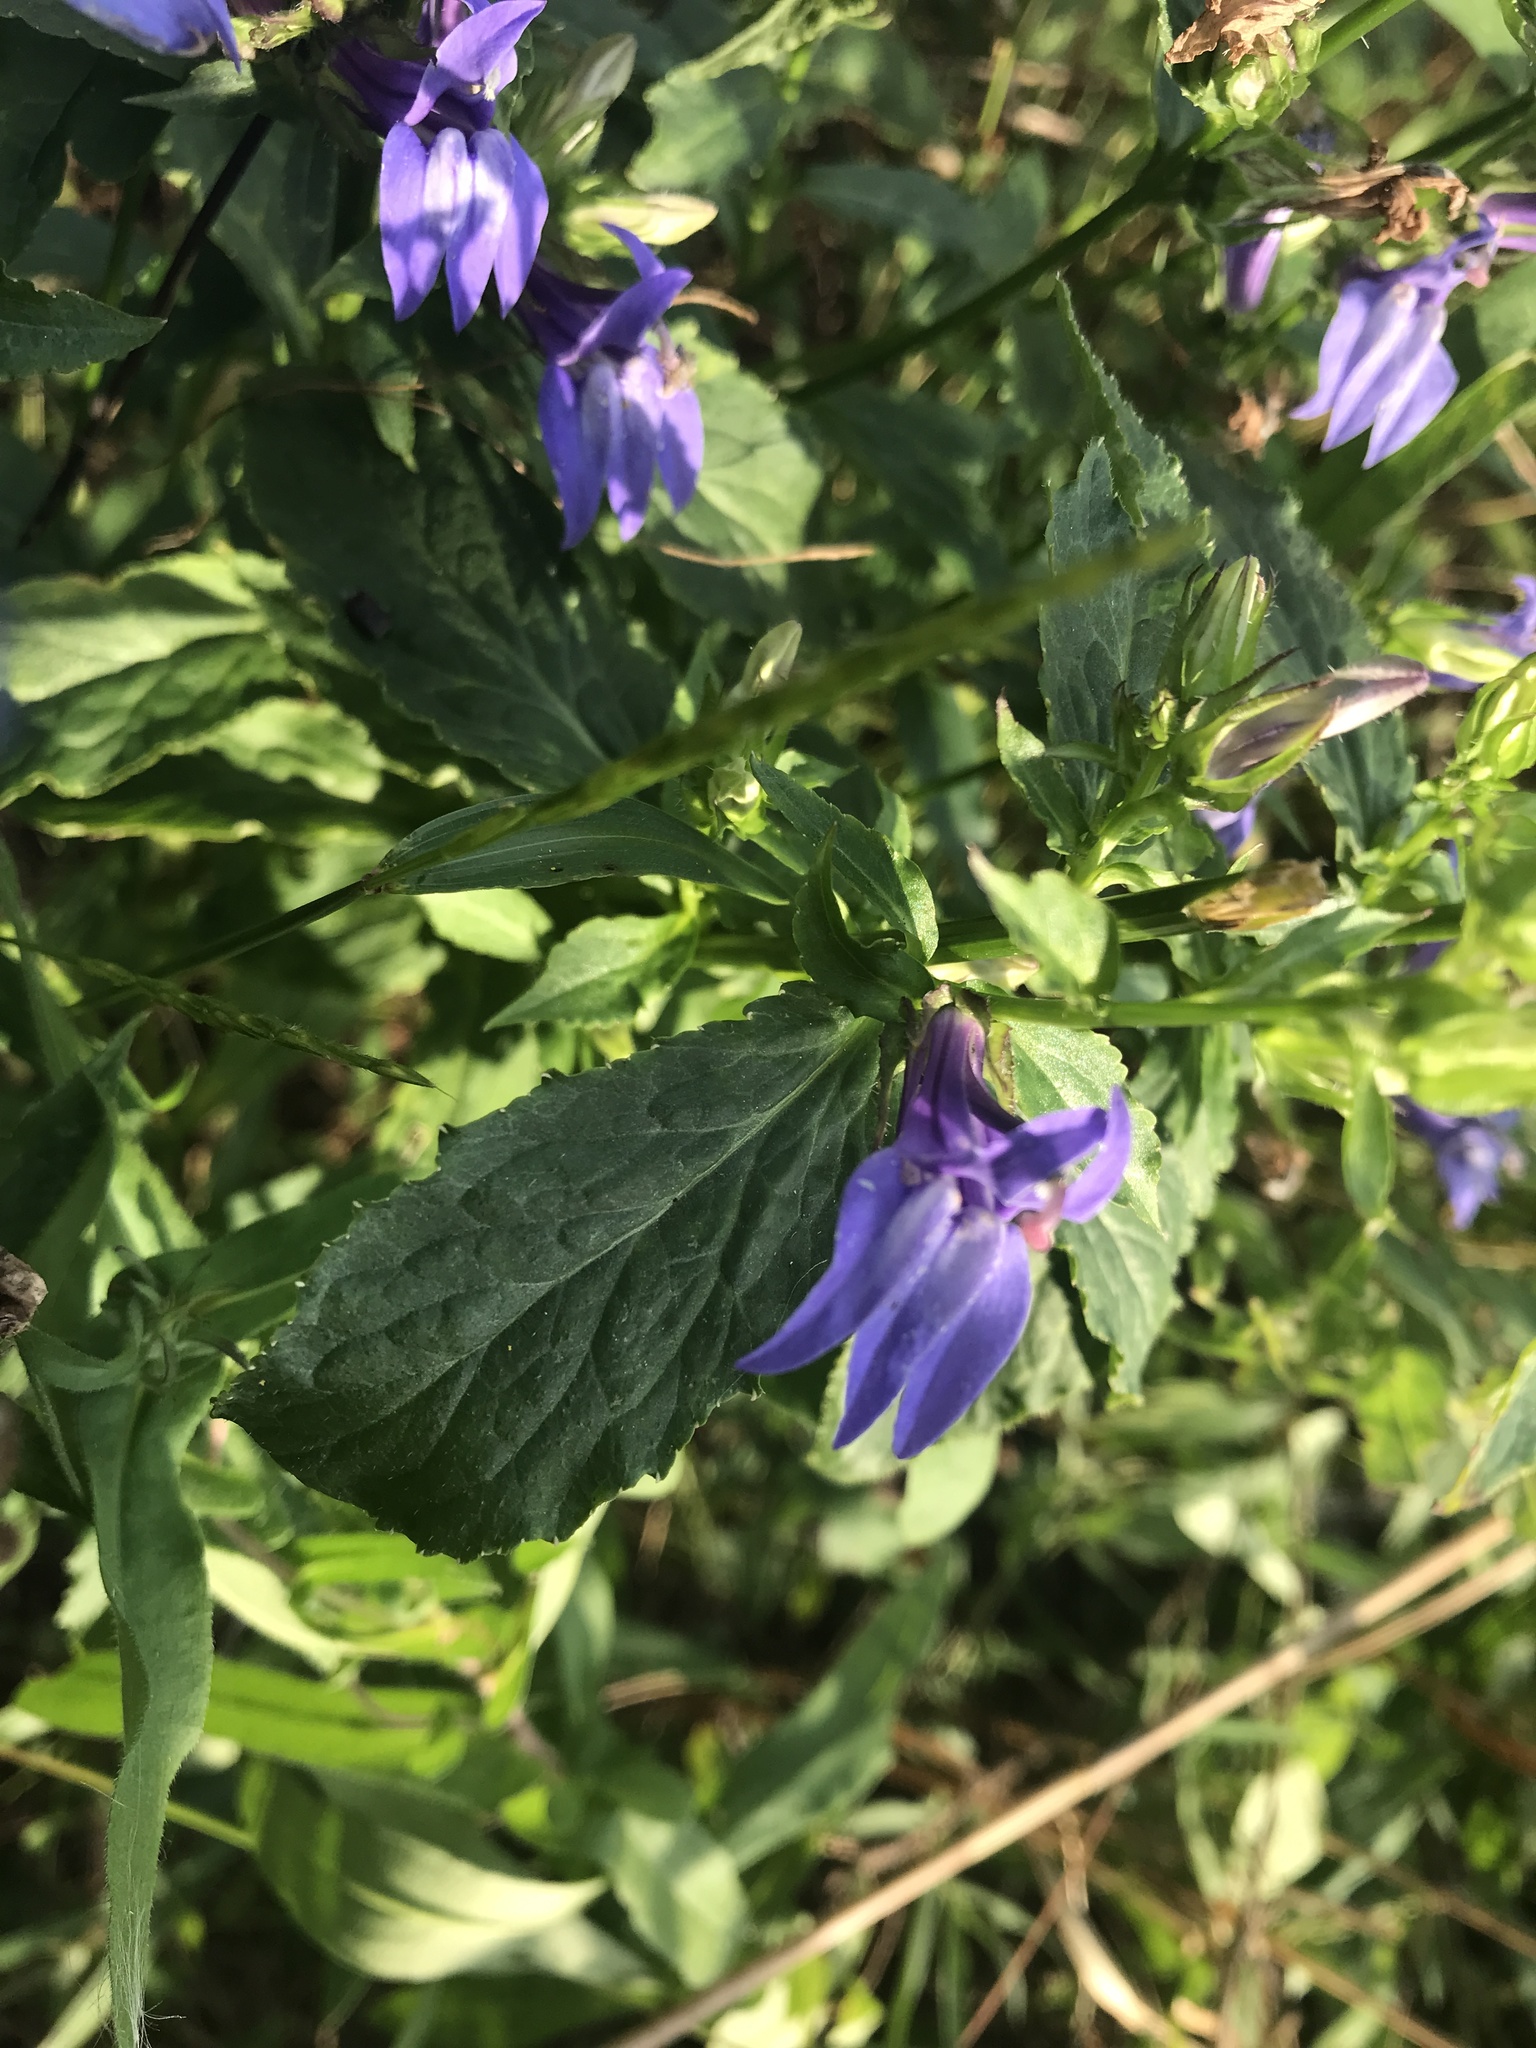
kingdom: Plantae
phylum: Tracheophyta
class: Magnoliopsida
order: Asterales
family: Campanulaceae
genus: Lobelia
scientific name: Lobelia siphilitica
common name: Great lobelia
